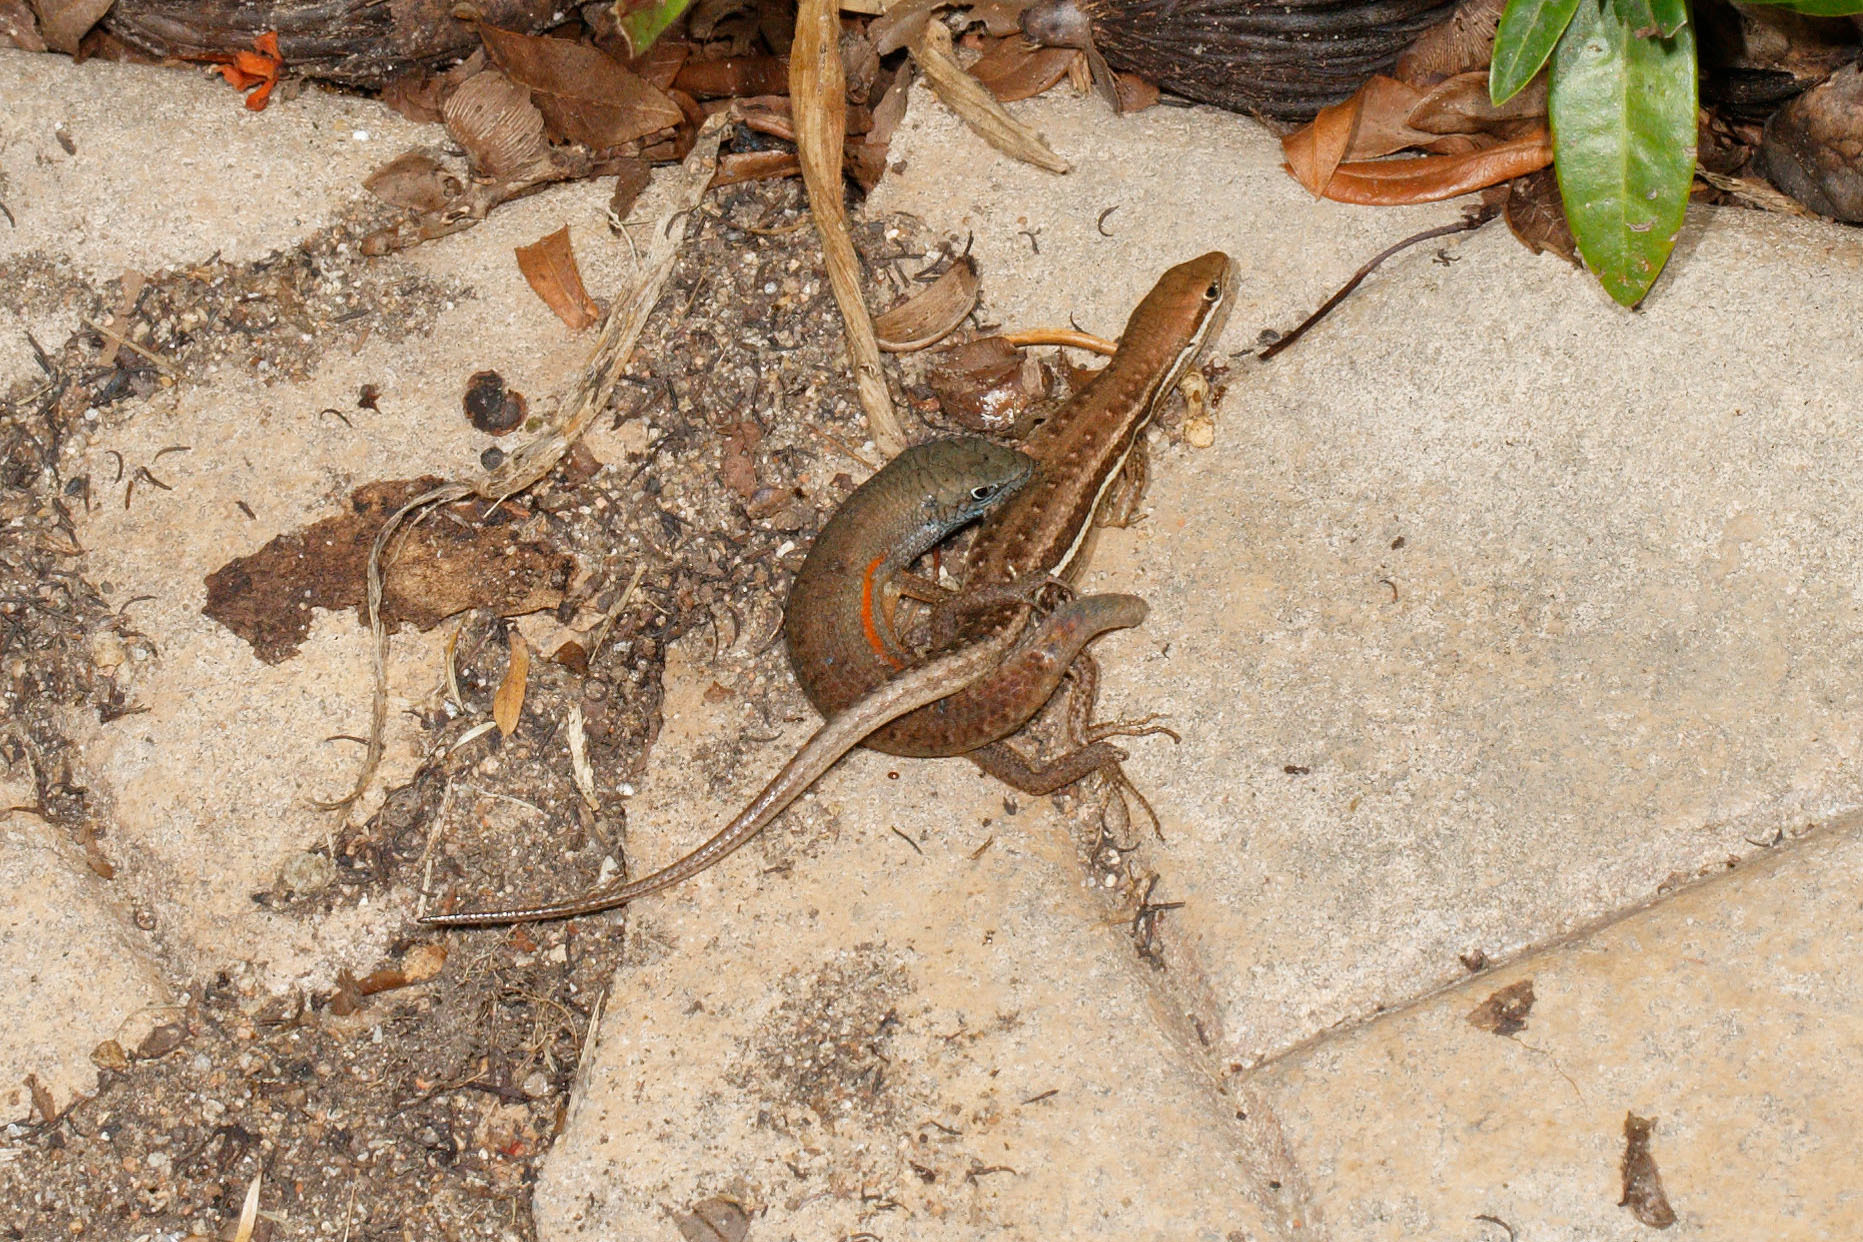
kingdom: Animalia
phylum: Chordata
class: Squamata
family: Scincidae
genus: Carlia
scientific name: Carlia decora
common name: Elegant rainbow skink
